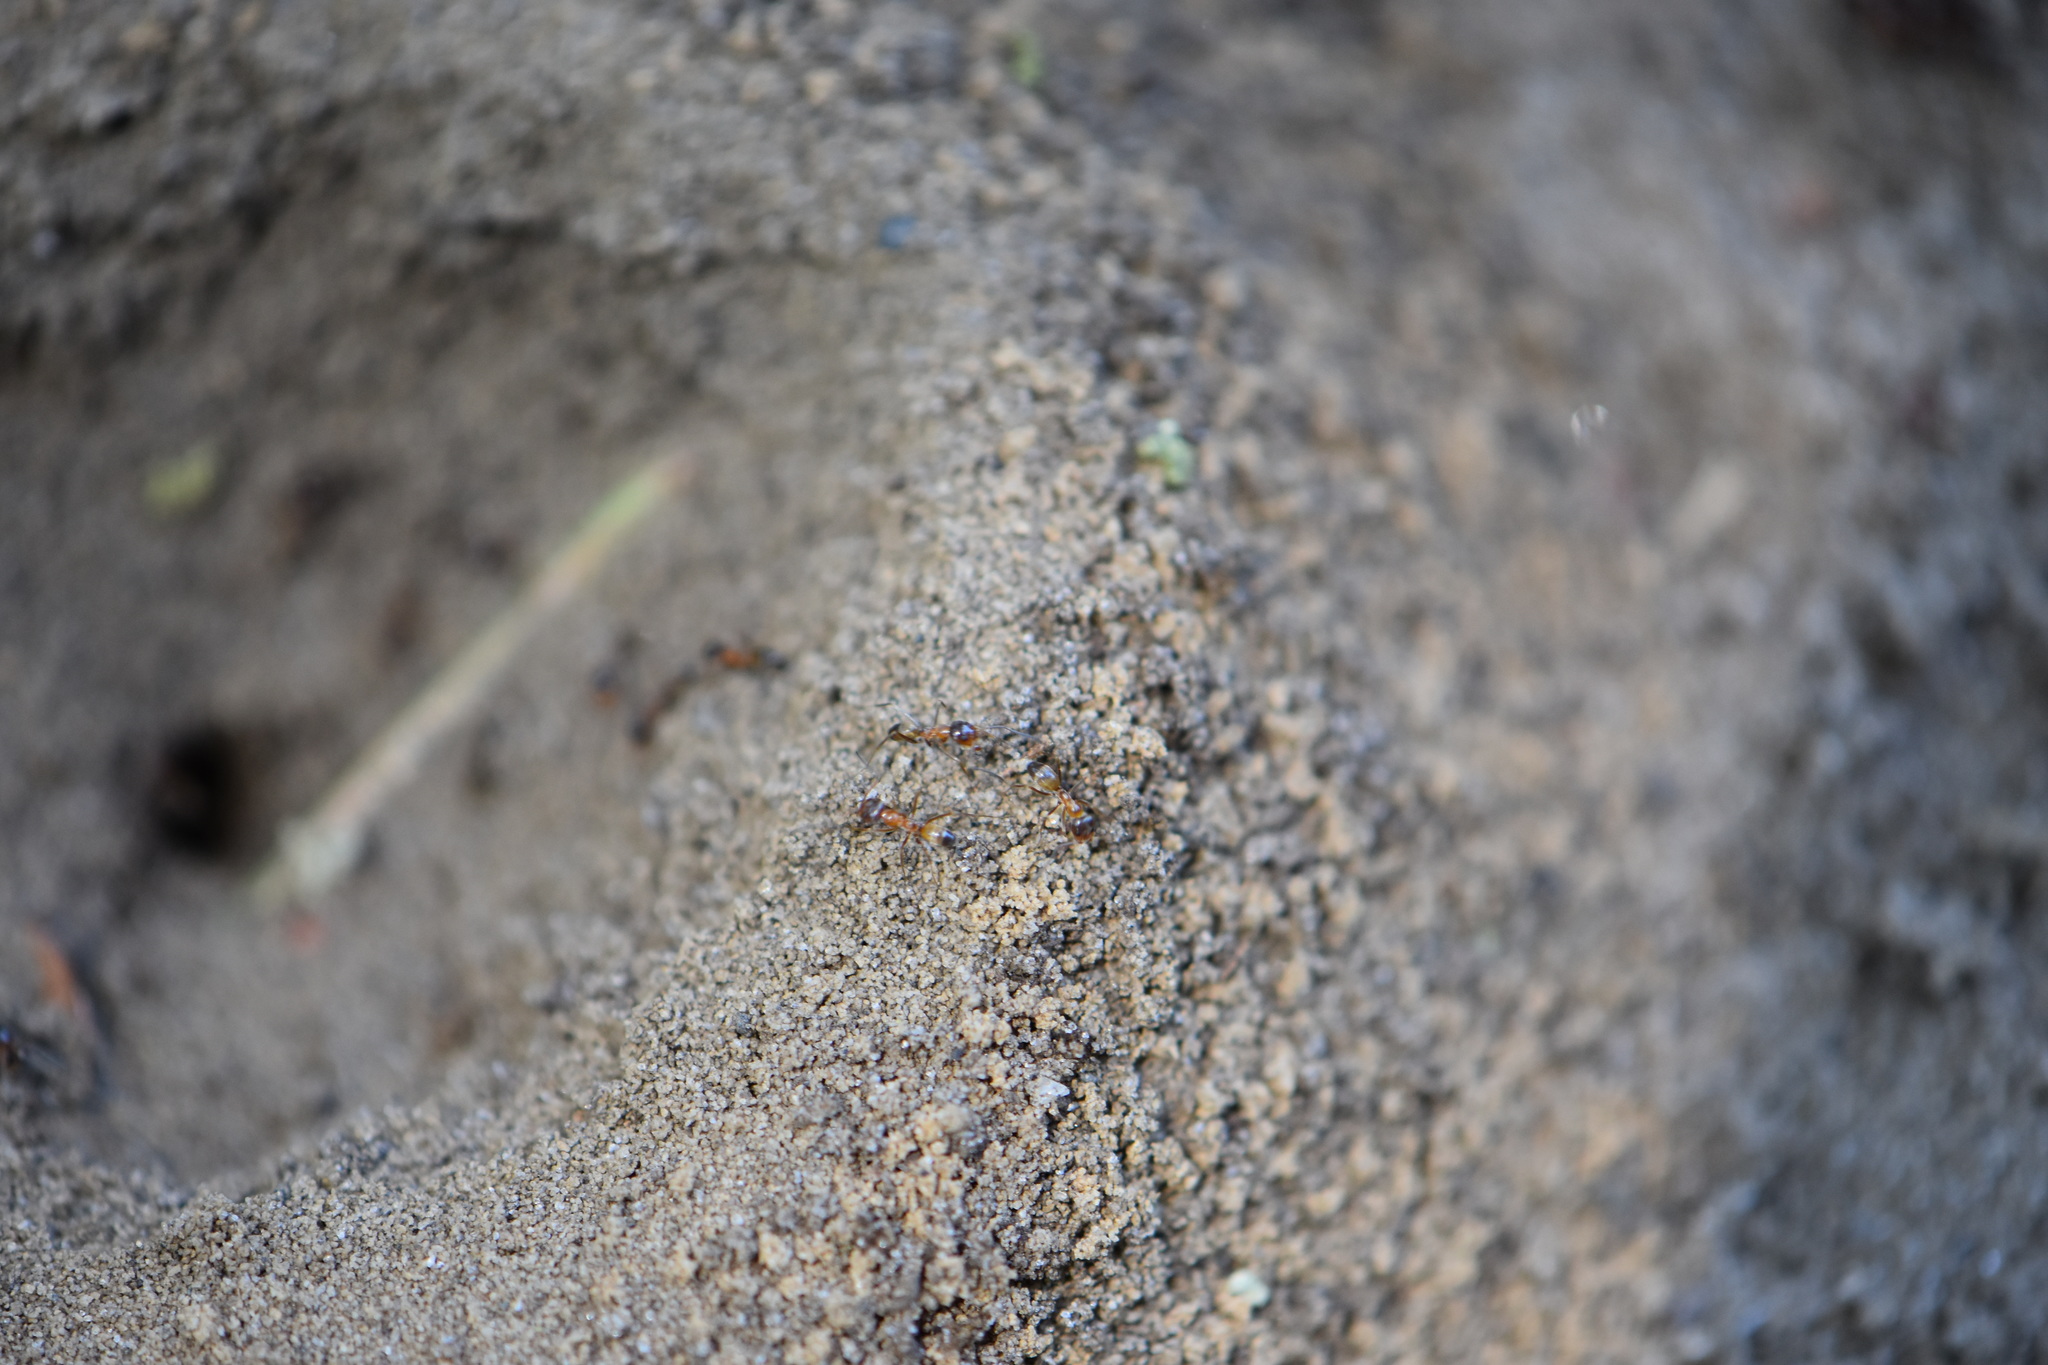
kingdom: Animalia
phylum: Arthropoda
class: Insecta
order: Hymenoptera
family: Formicidae
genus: Dorymyrmex
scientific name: Dorymyrmex bureni
